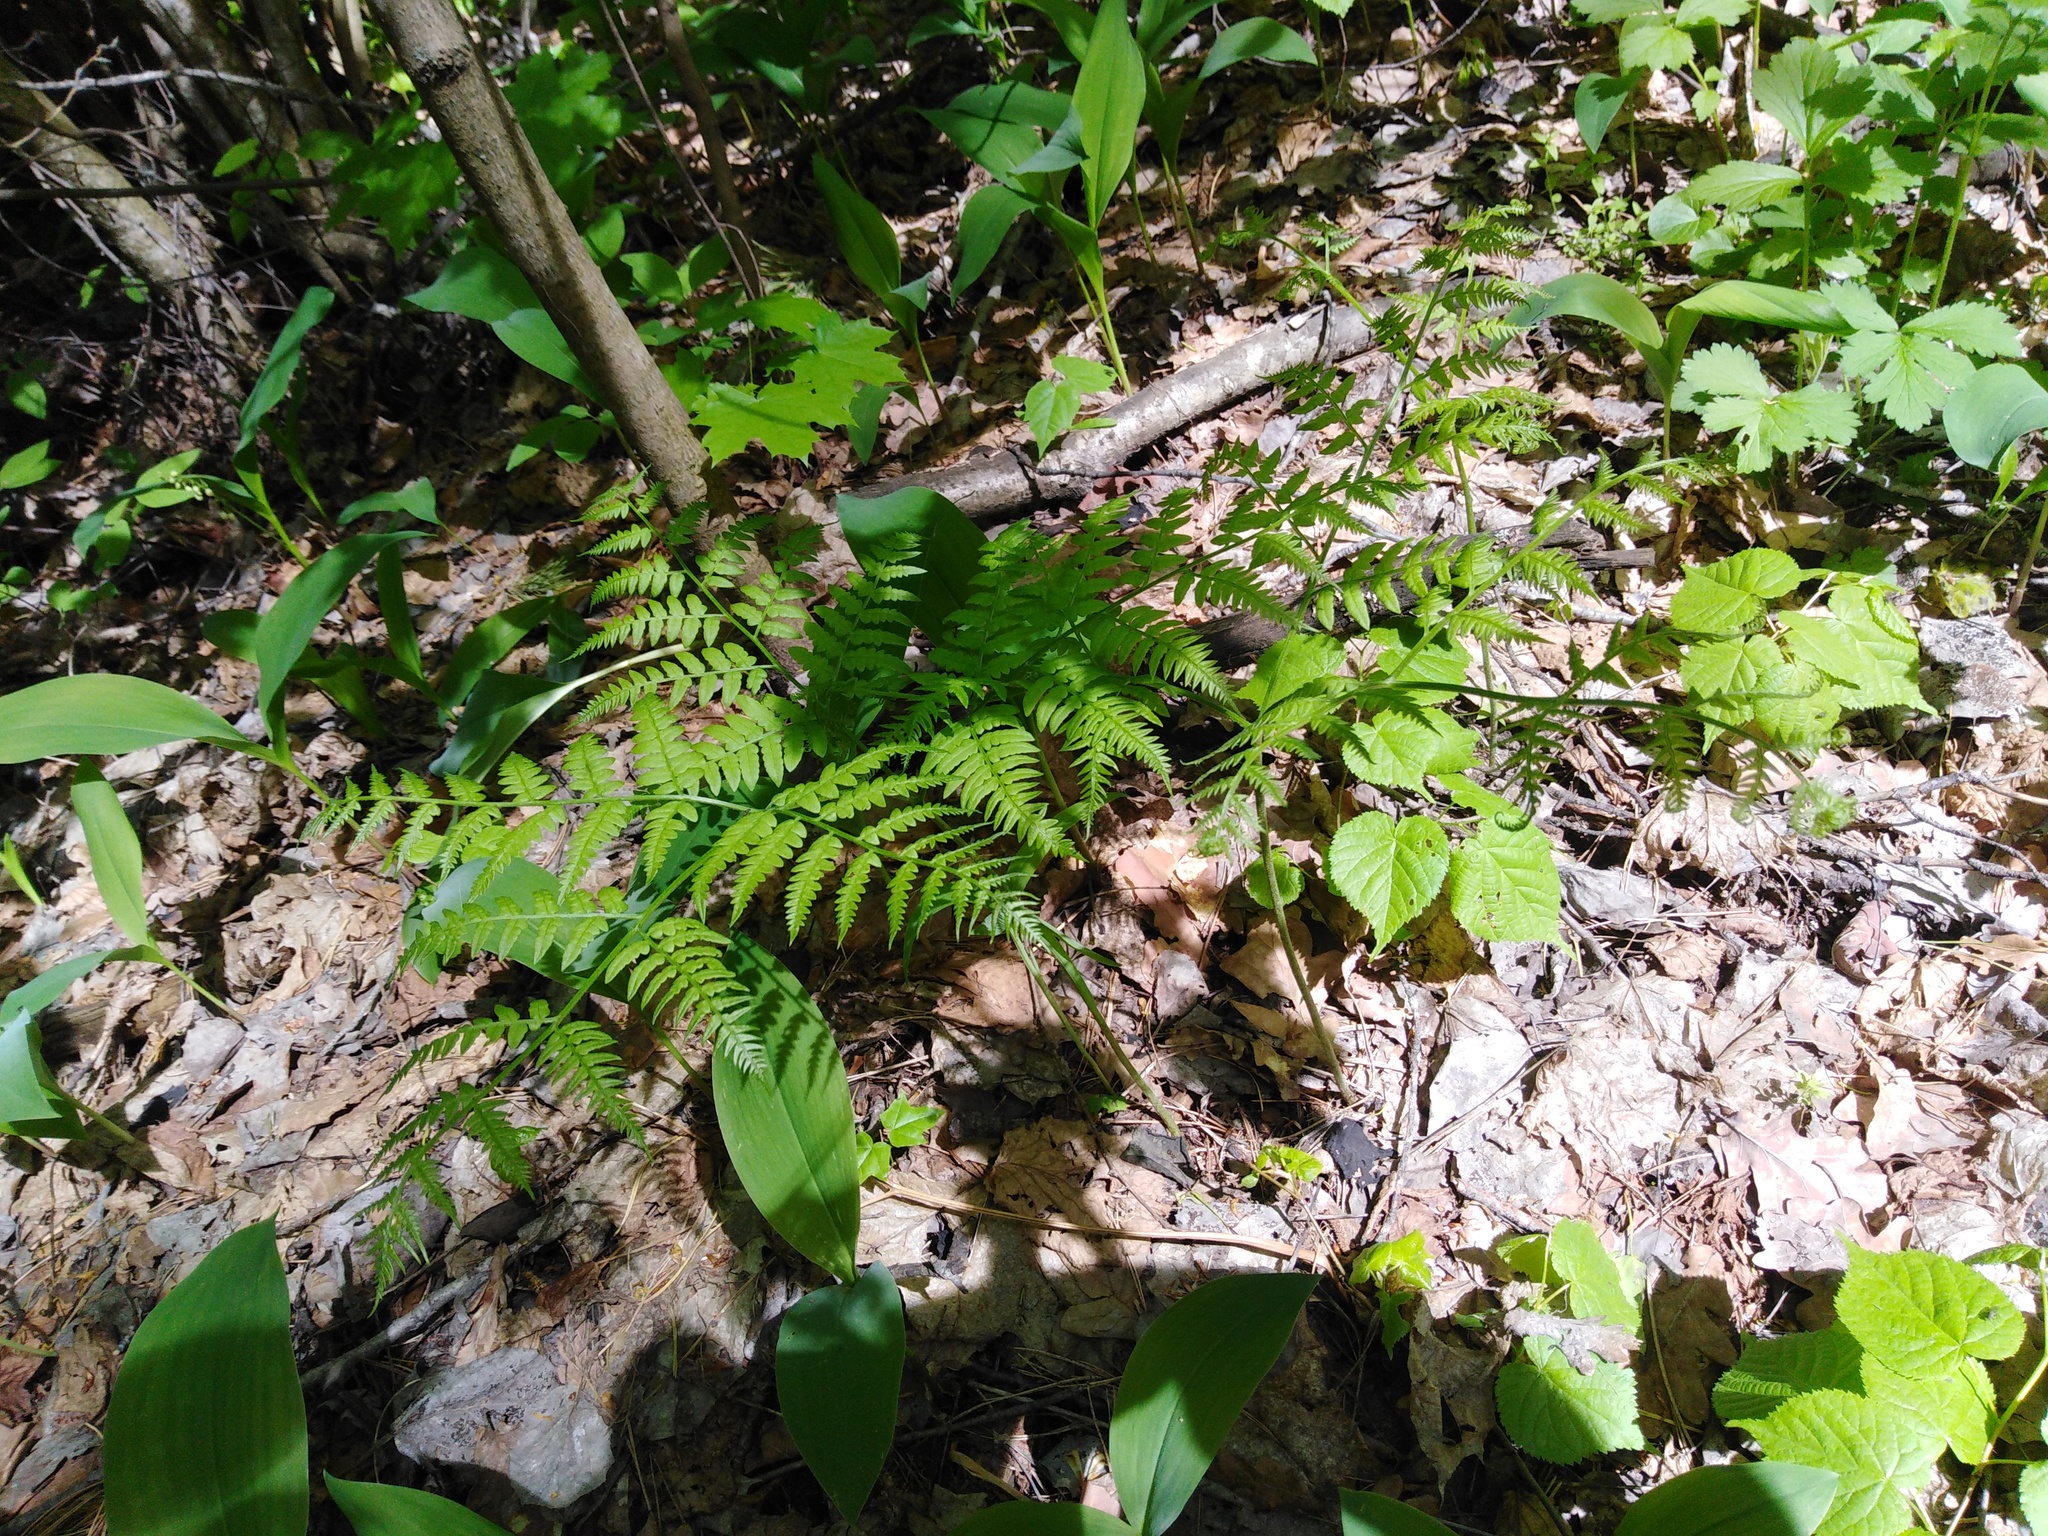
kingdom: Plantae
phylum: Tracheophyta
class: Polypodiopsida
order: Polypodiales
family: Dennstaedtiaceae
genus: Pteridium
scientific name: Pteridium aquilinum
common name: Bracken
